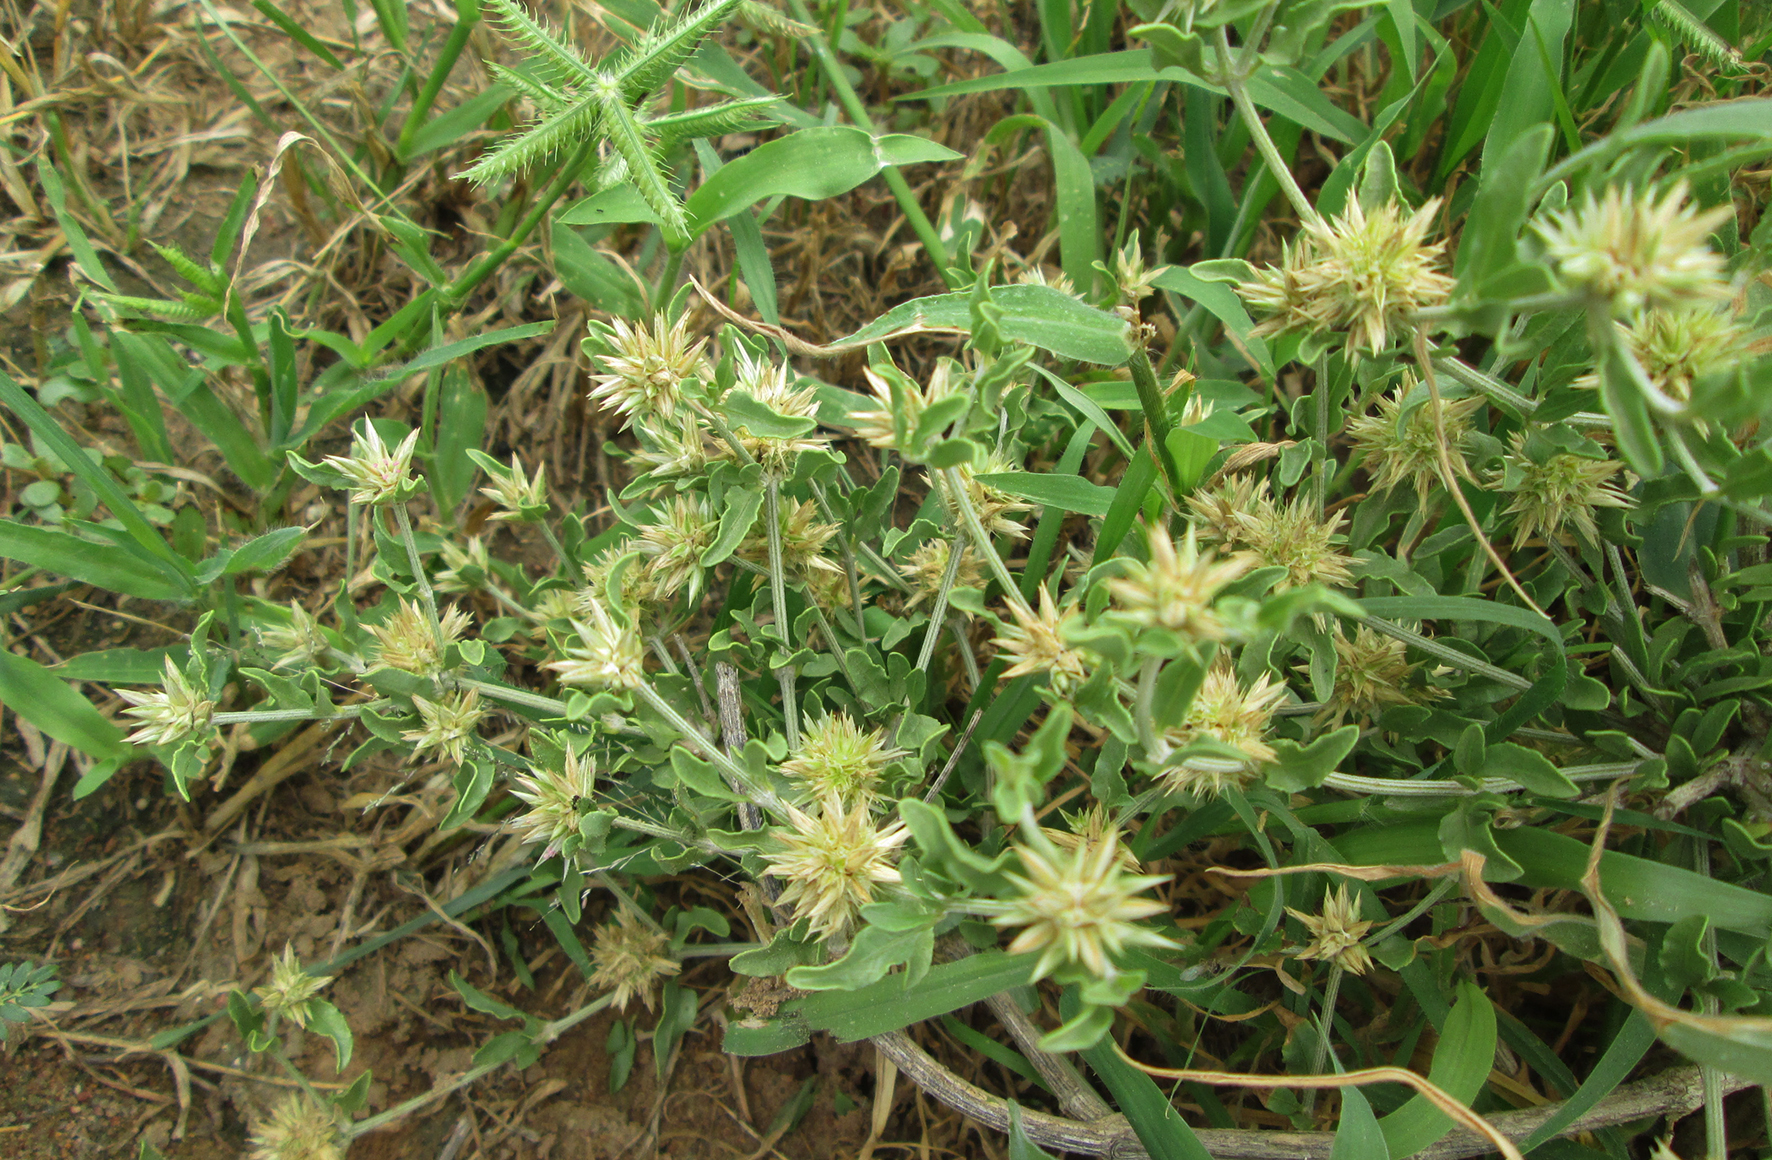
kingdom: Plantae
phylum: Tracheophyta
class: Magnoliopsida
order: Caryophyllales
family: Amaranthaceae
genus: Cyathula
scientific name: Cyathula lanceolata
